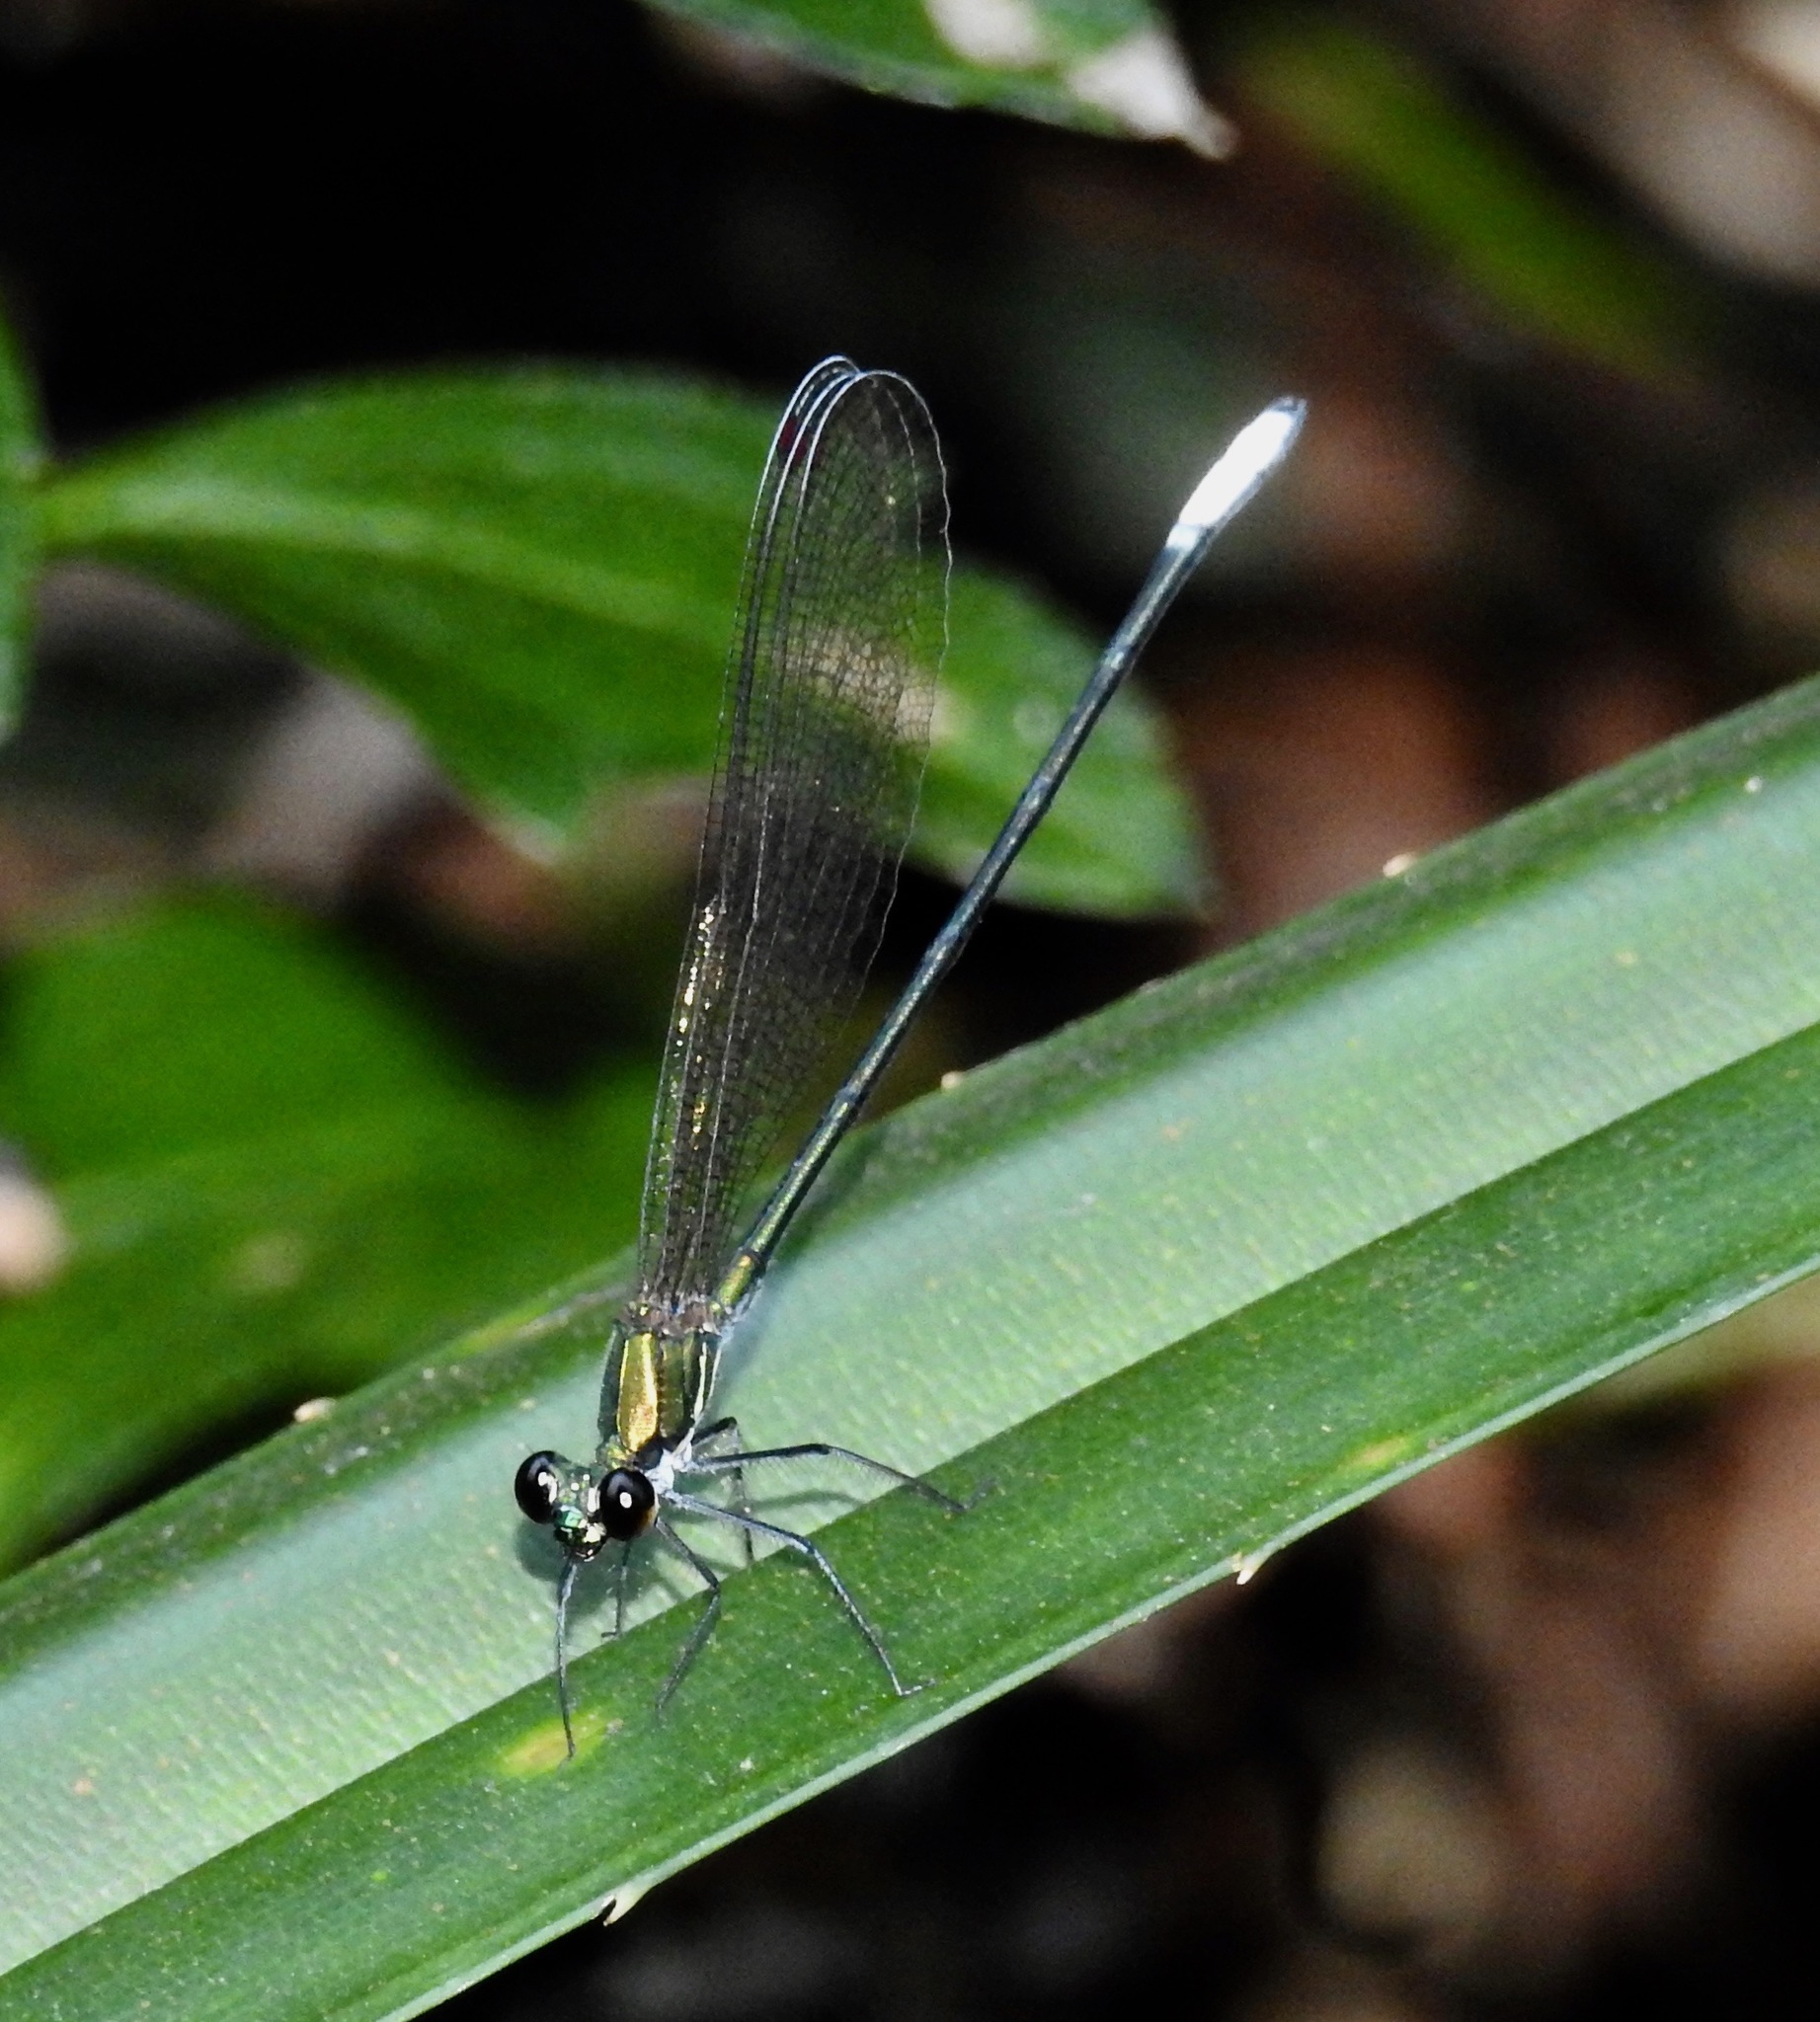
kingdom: Animalia
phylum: Arthropoda
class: Insecta
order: Odonata
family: Calopterygidae
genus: Mnais
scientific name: Mnais mneme
